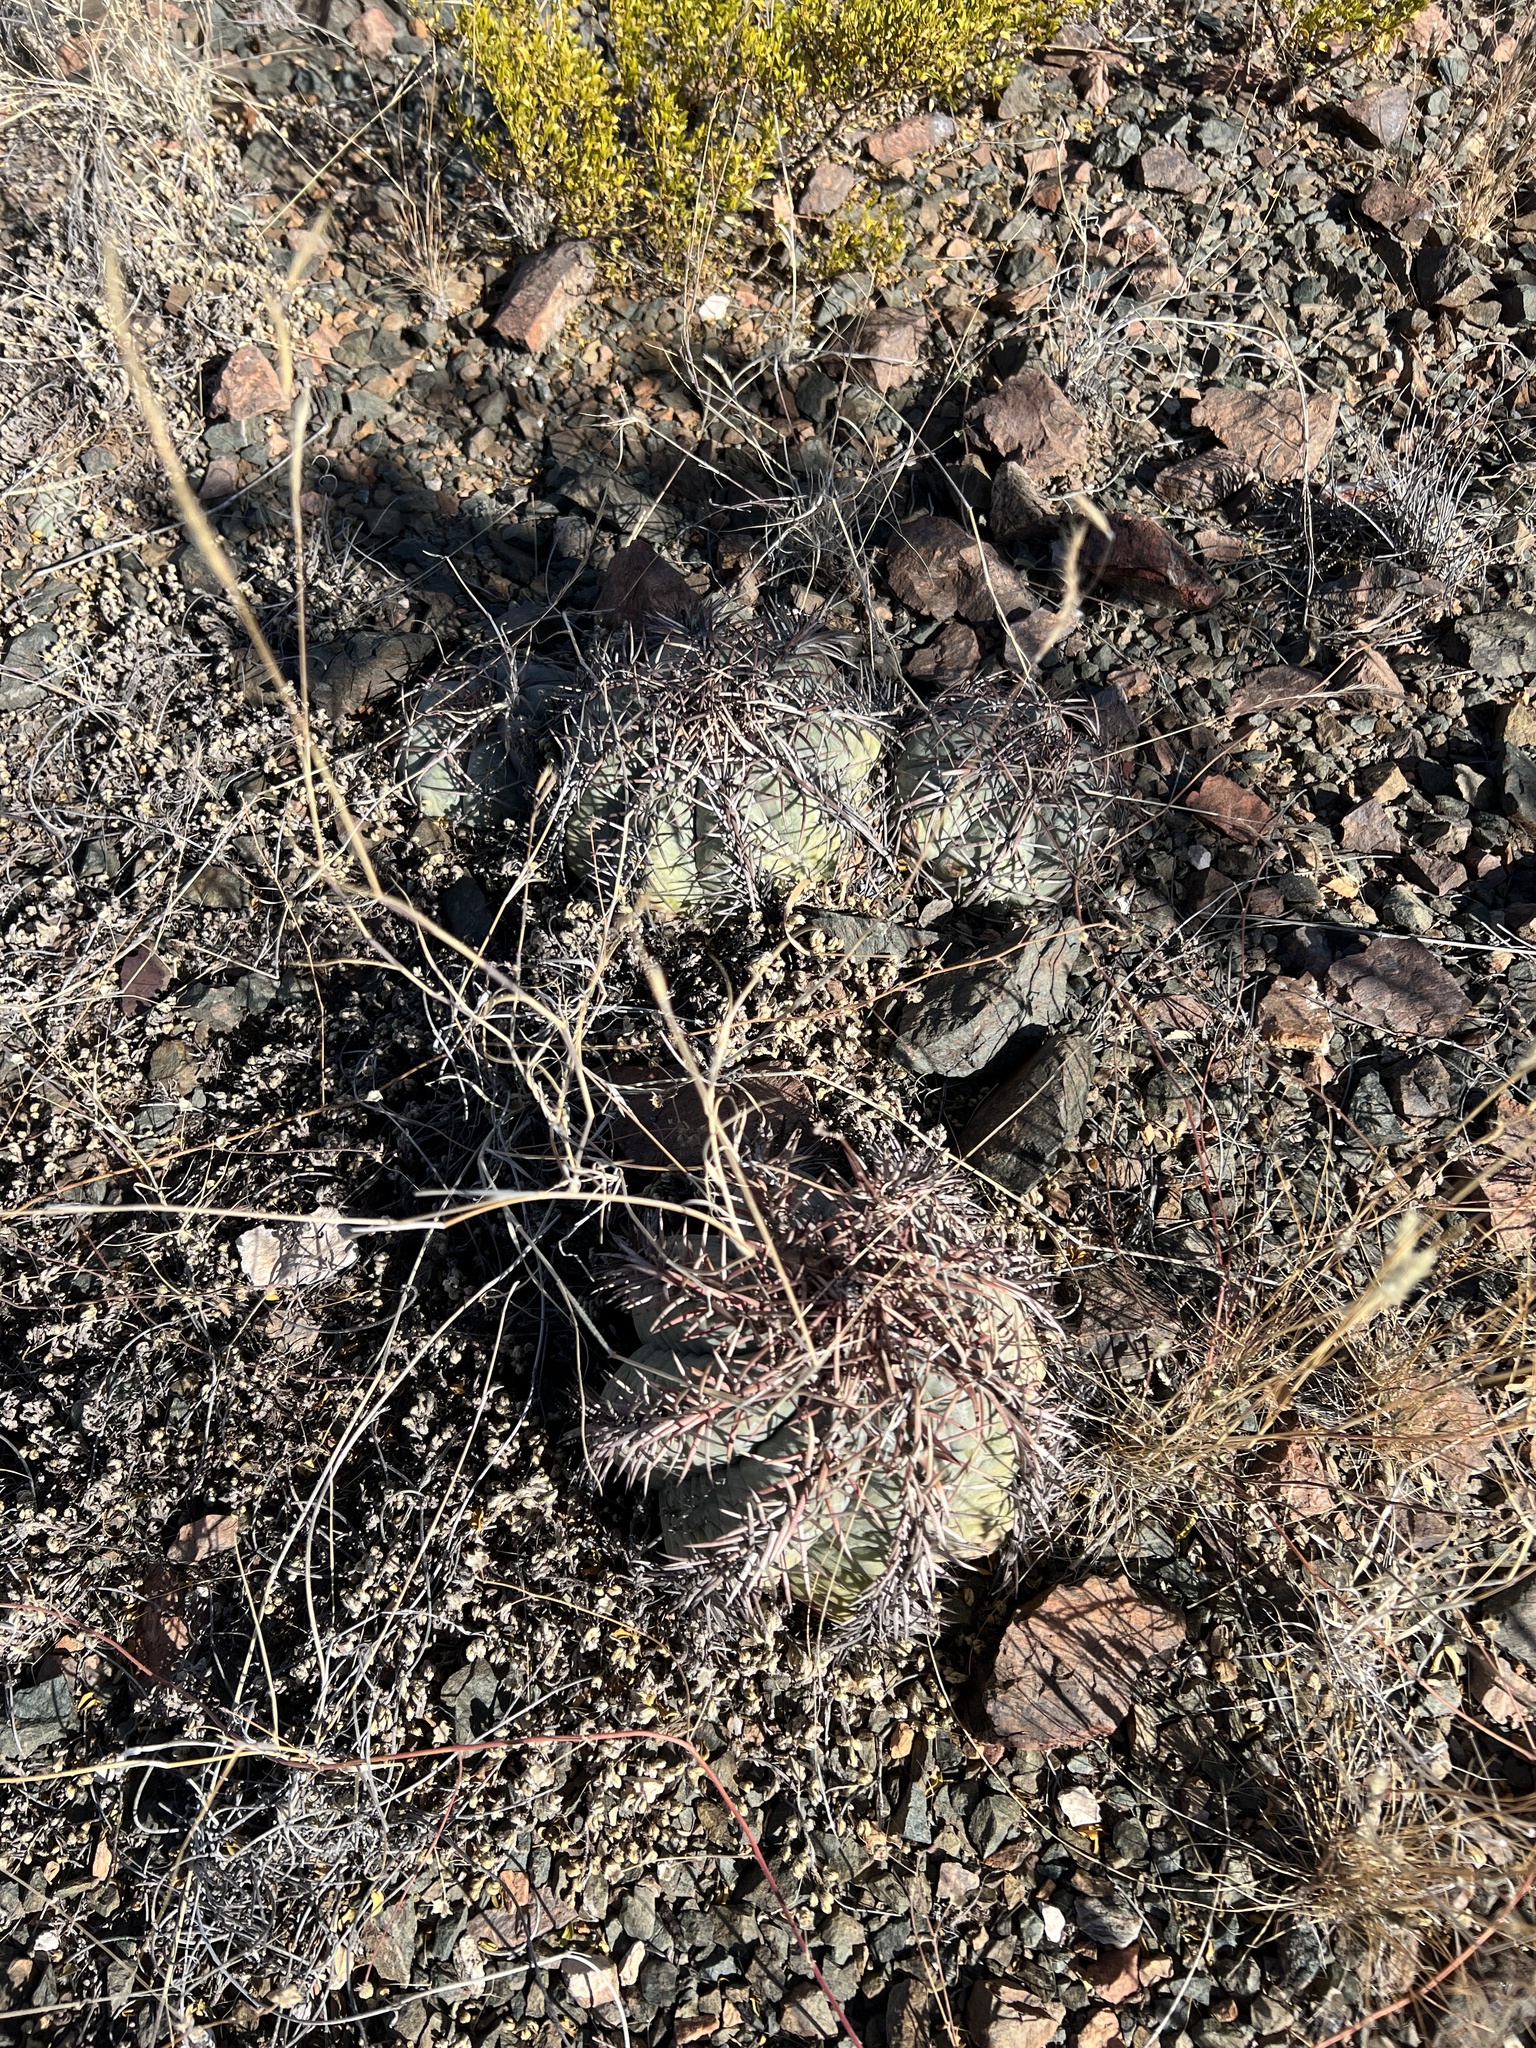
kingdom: Plantae
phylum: Tracheophyta
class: Magnoliopsida
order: Caryophyllales
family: Cactaceae
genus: Echinocactus
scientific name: Echinocactus horizonthalonius
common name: Devilshead
